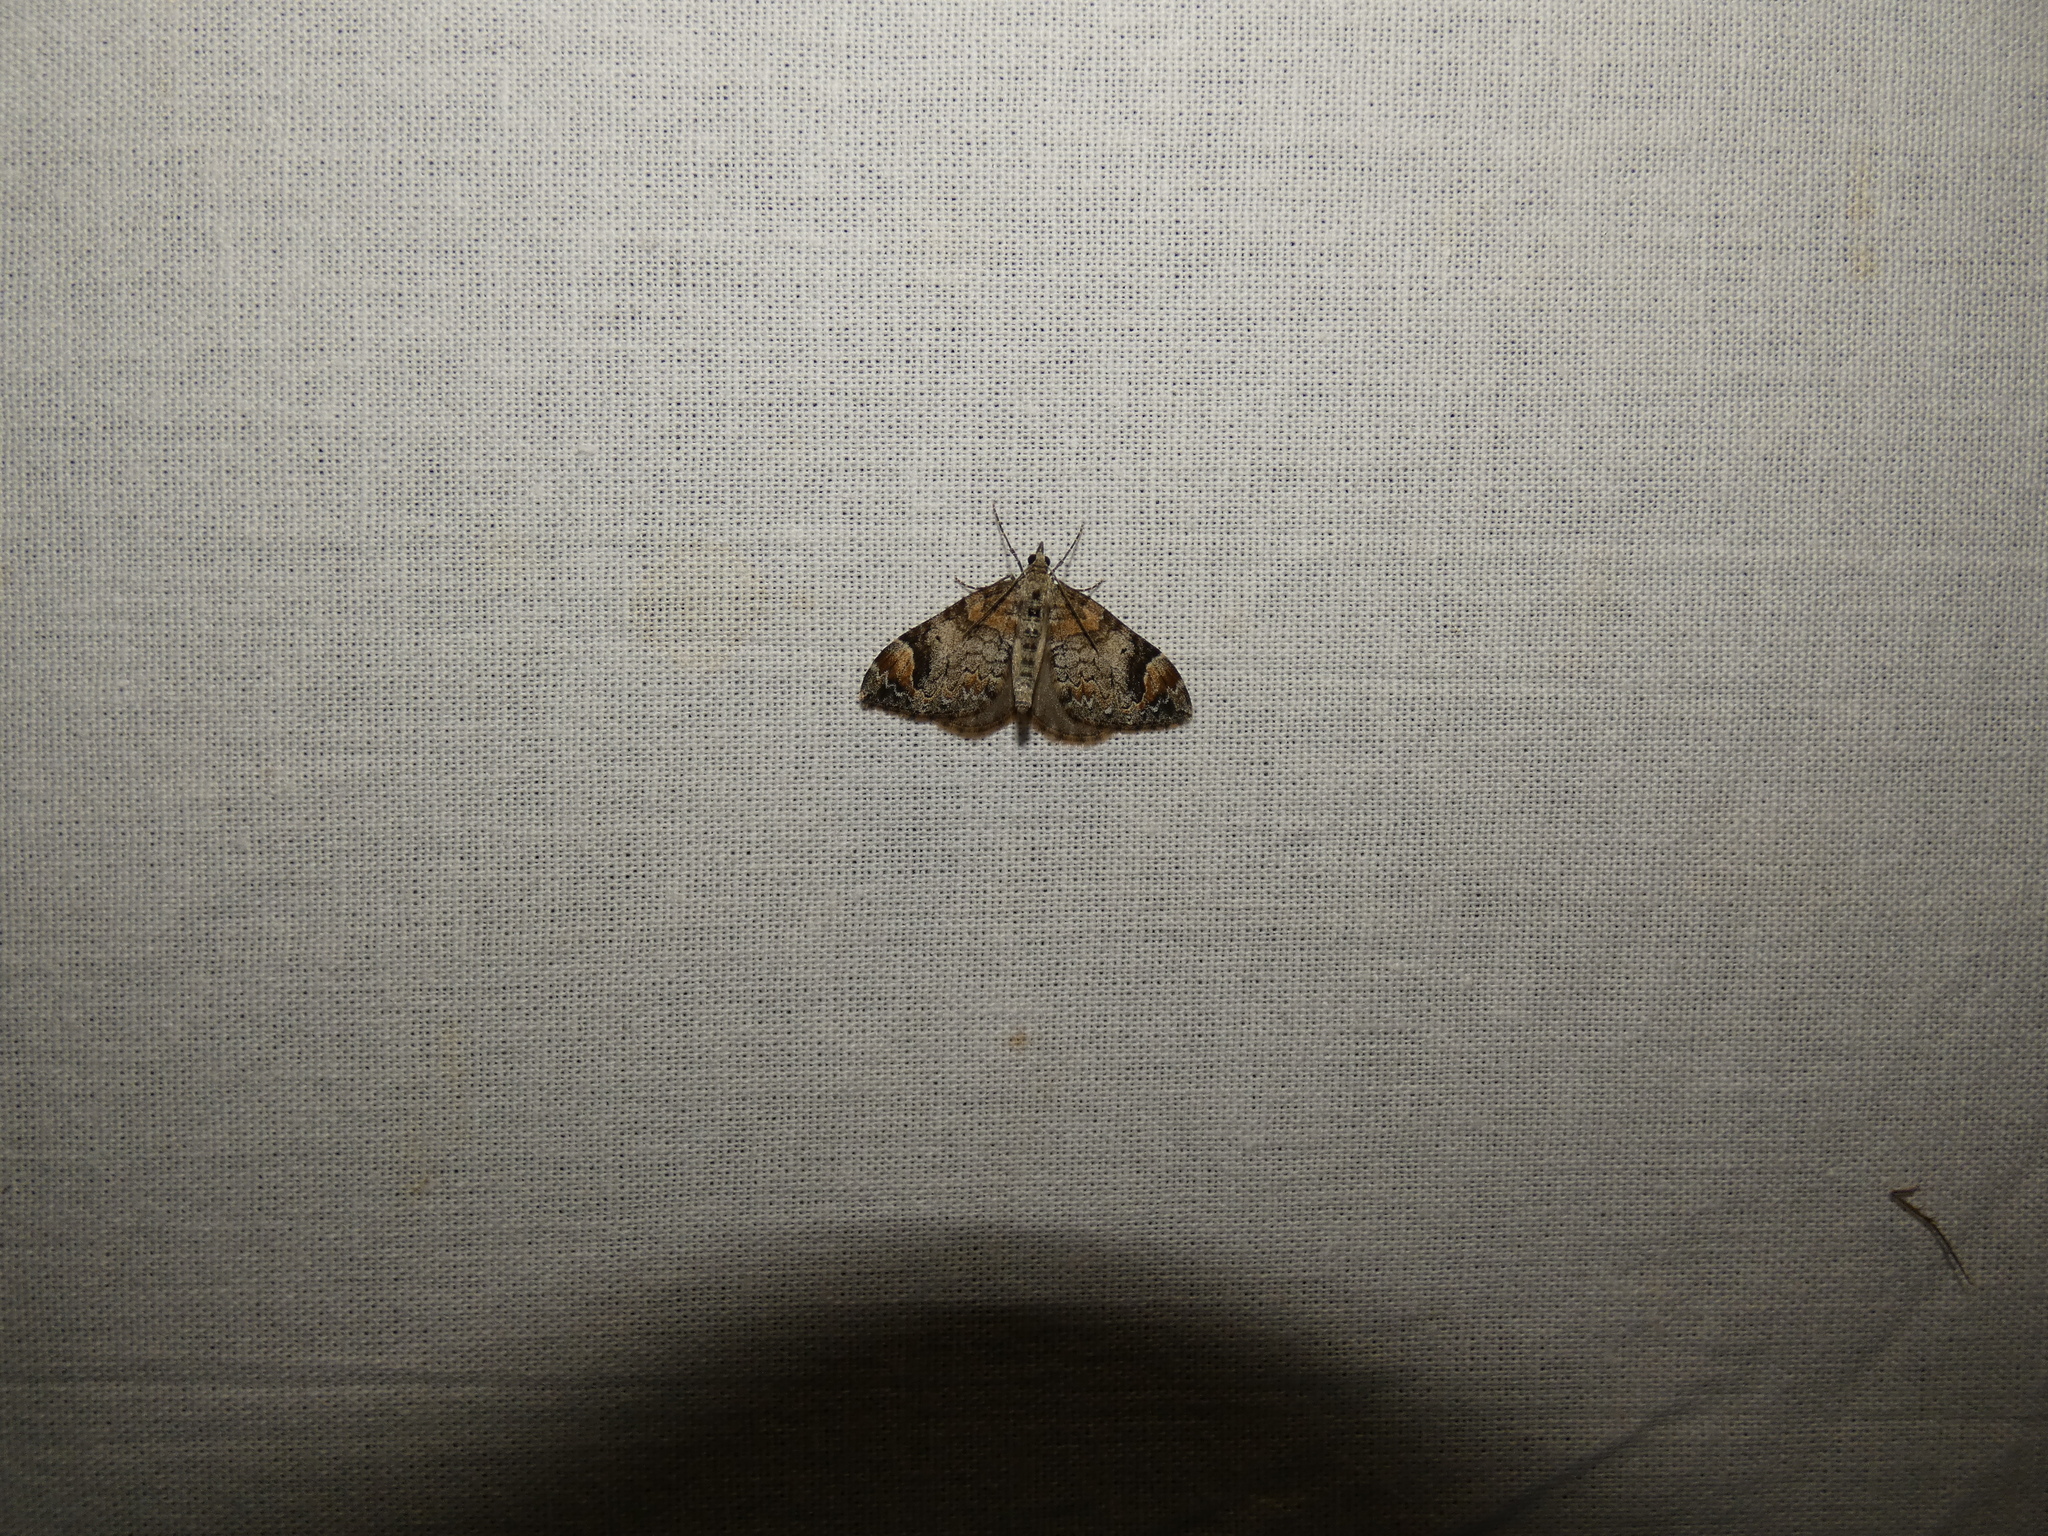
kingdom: Animalia
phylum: Arthropoda
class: Insecta
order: Lepidoptera
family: Geometridae
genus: Dysstroma
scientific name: Dysstroma citrata
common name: Dark marbled carpet
